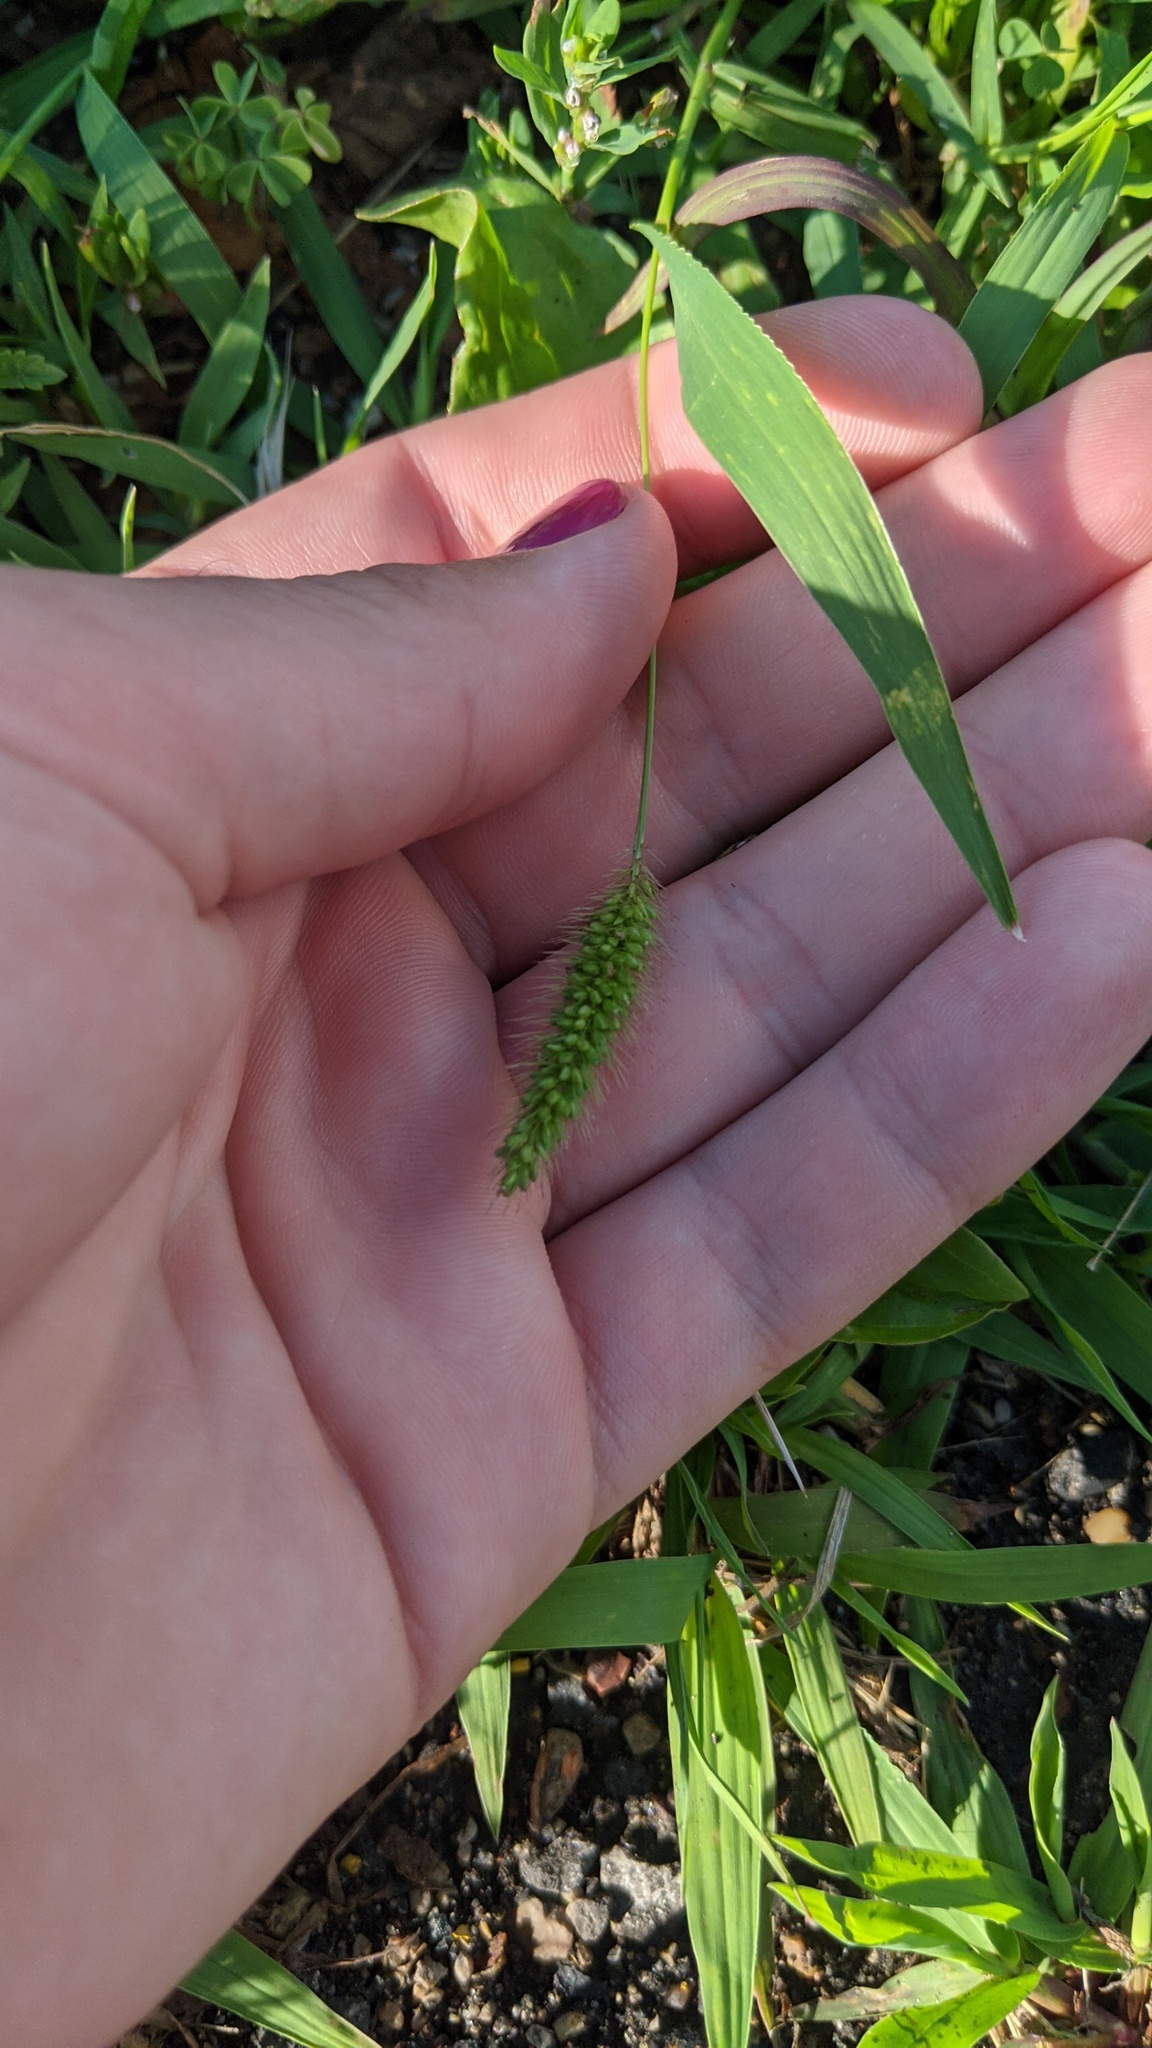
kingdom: Plantae
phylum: Tracheophyta
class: Liliopsida
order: Poales
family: Poaceae
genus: Setaria
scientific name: Setaria viridis
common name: Green bristlegrass
